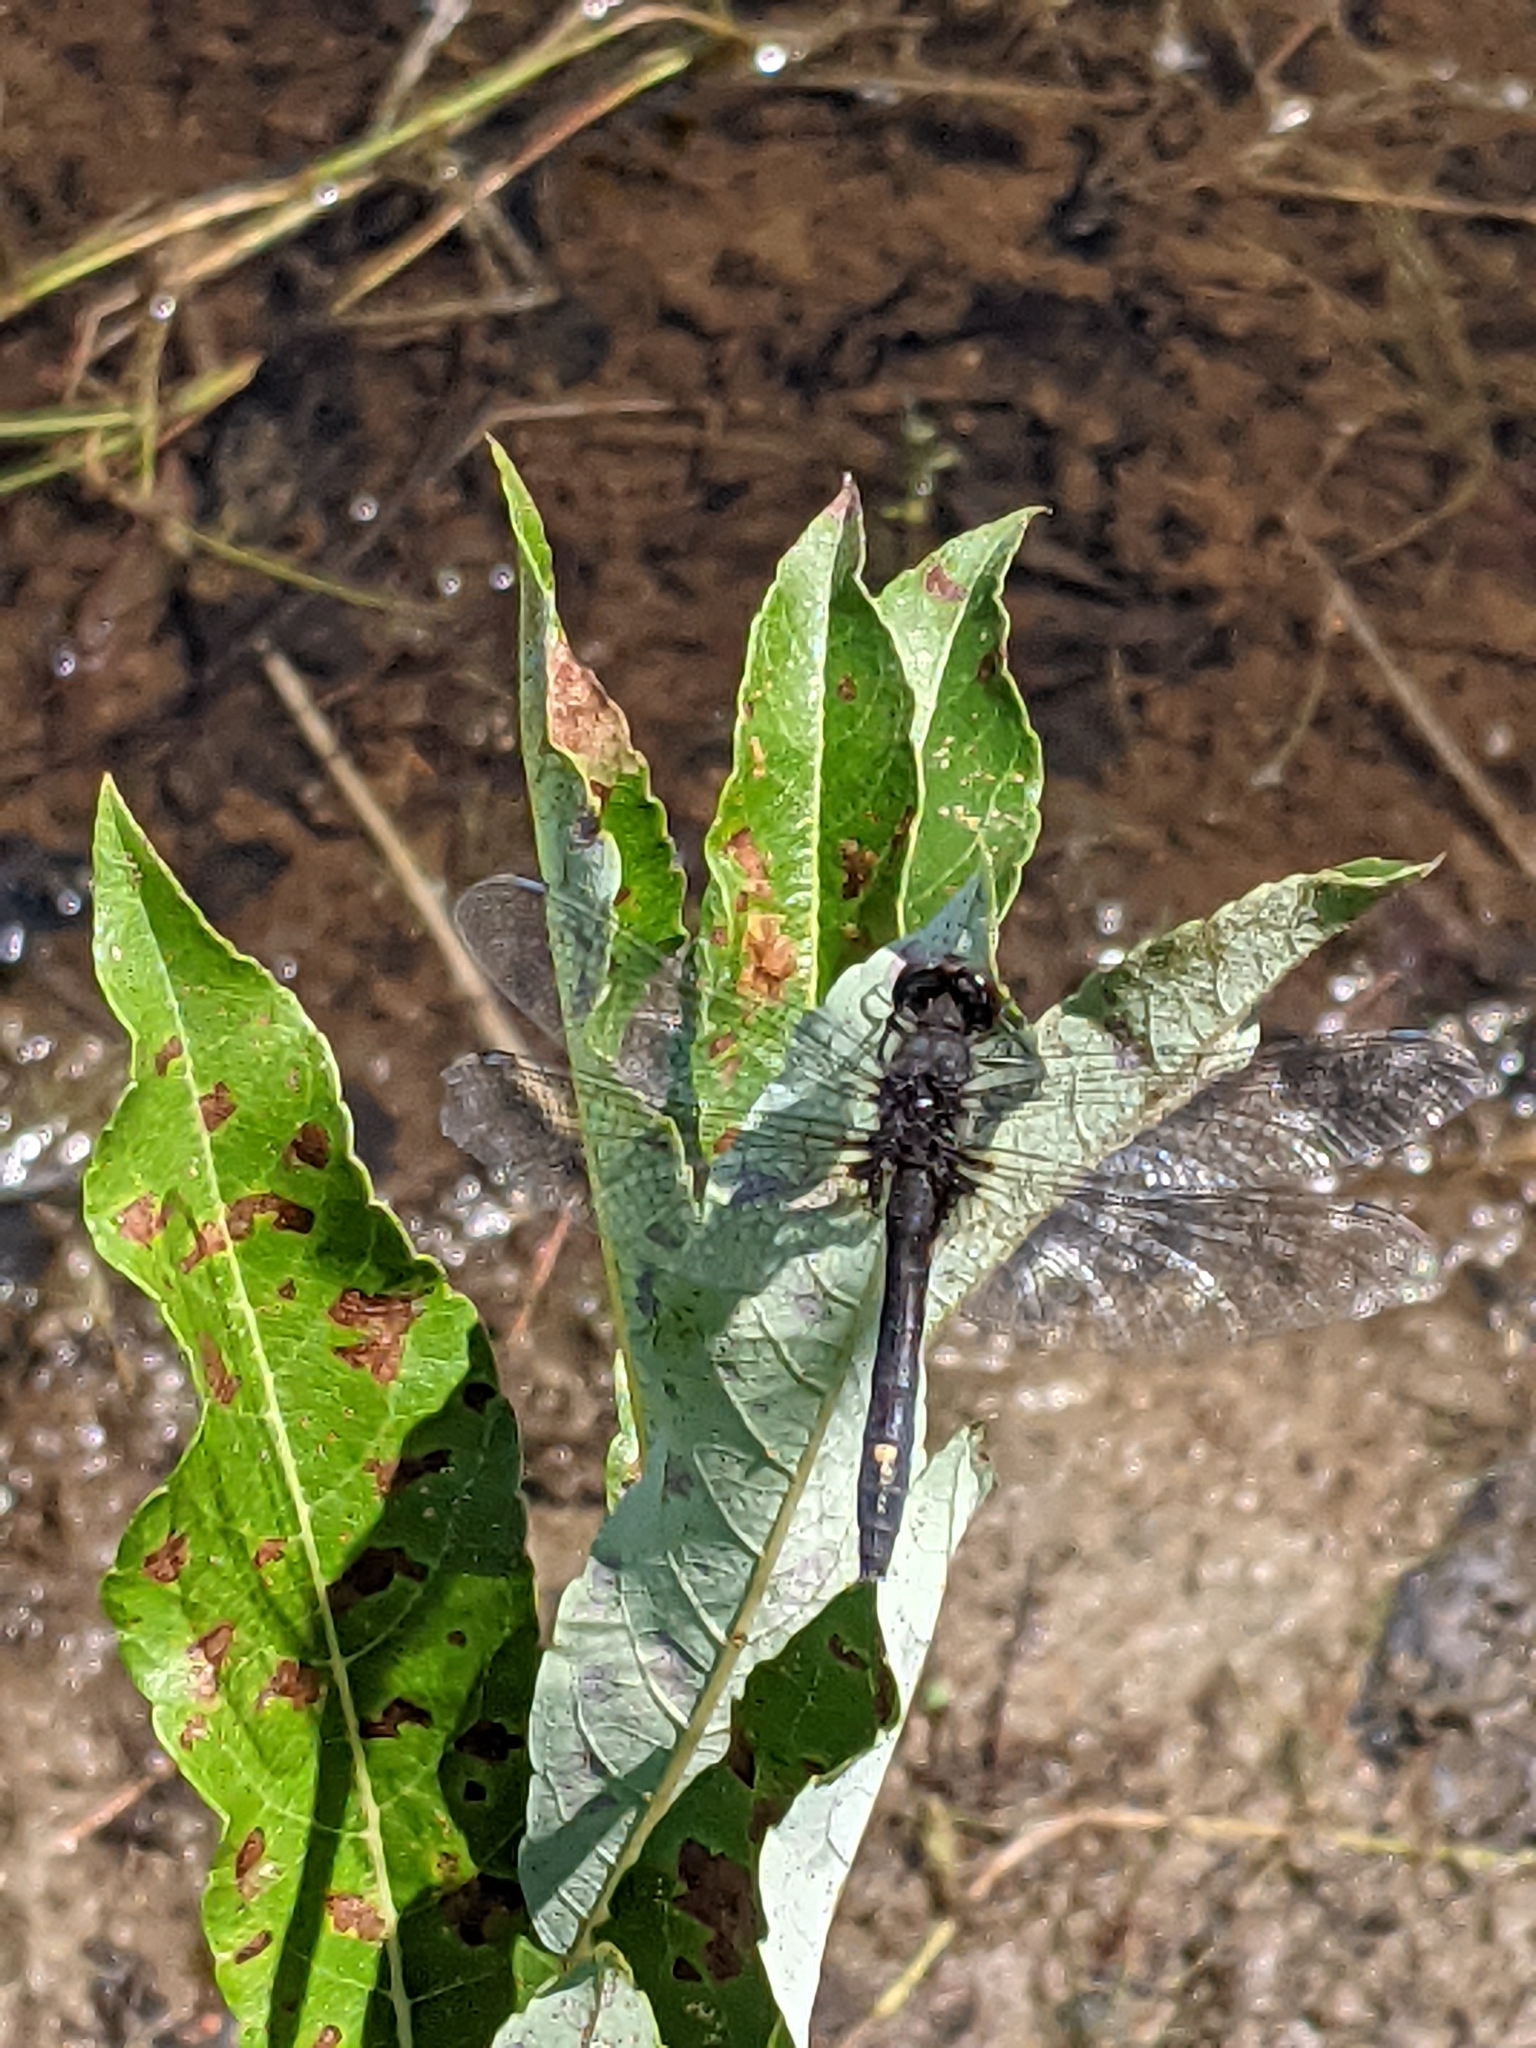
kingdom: Animalia
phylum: Arthropoda
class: Insecta
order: Odonata
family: Libellulidae
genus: Leucorrhinia
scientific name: Leucorrhinia intacta
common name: Dot-tailed whiteface
